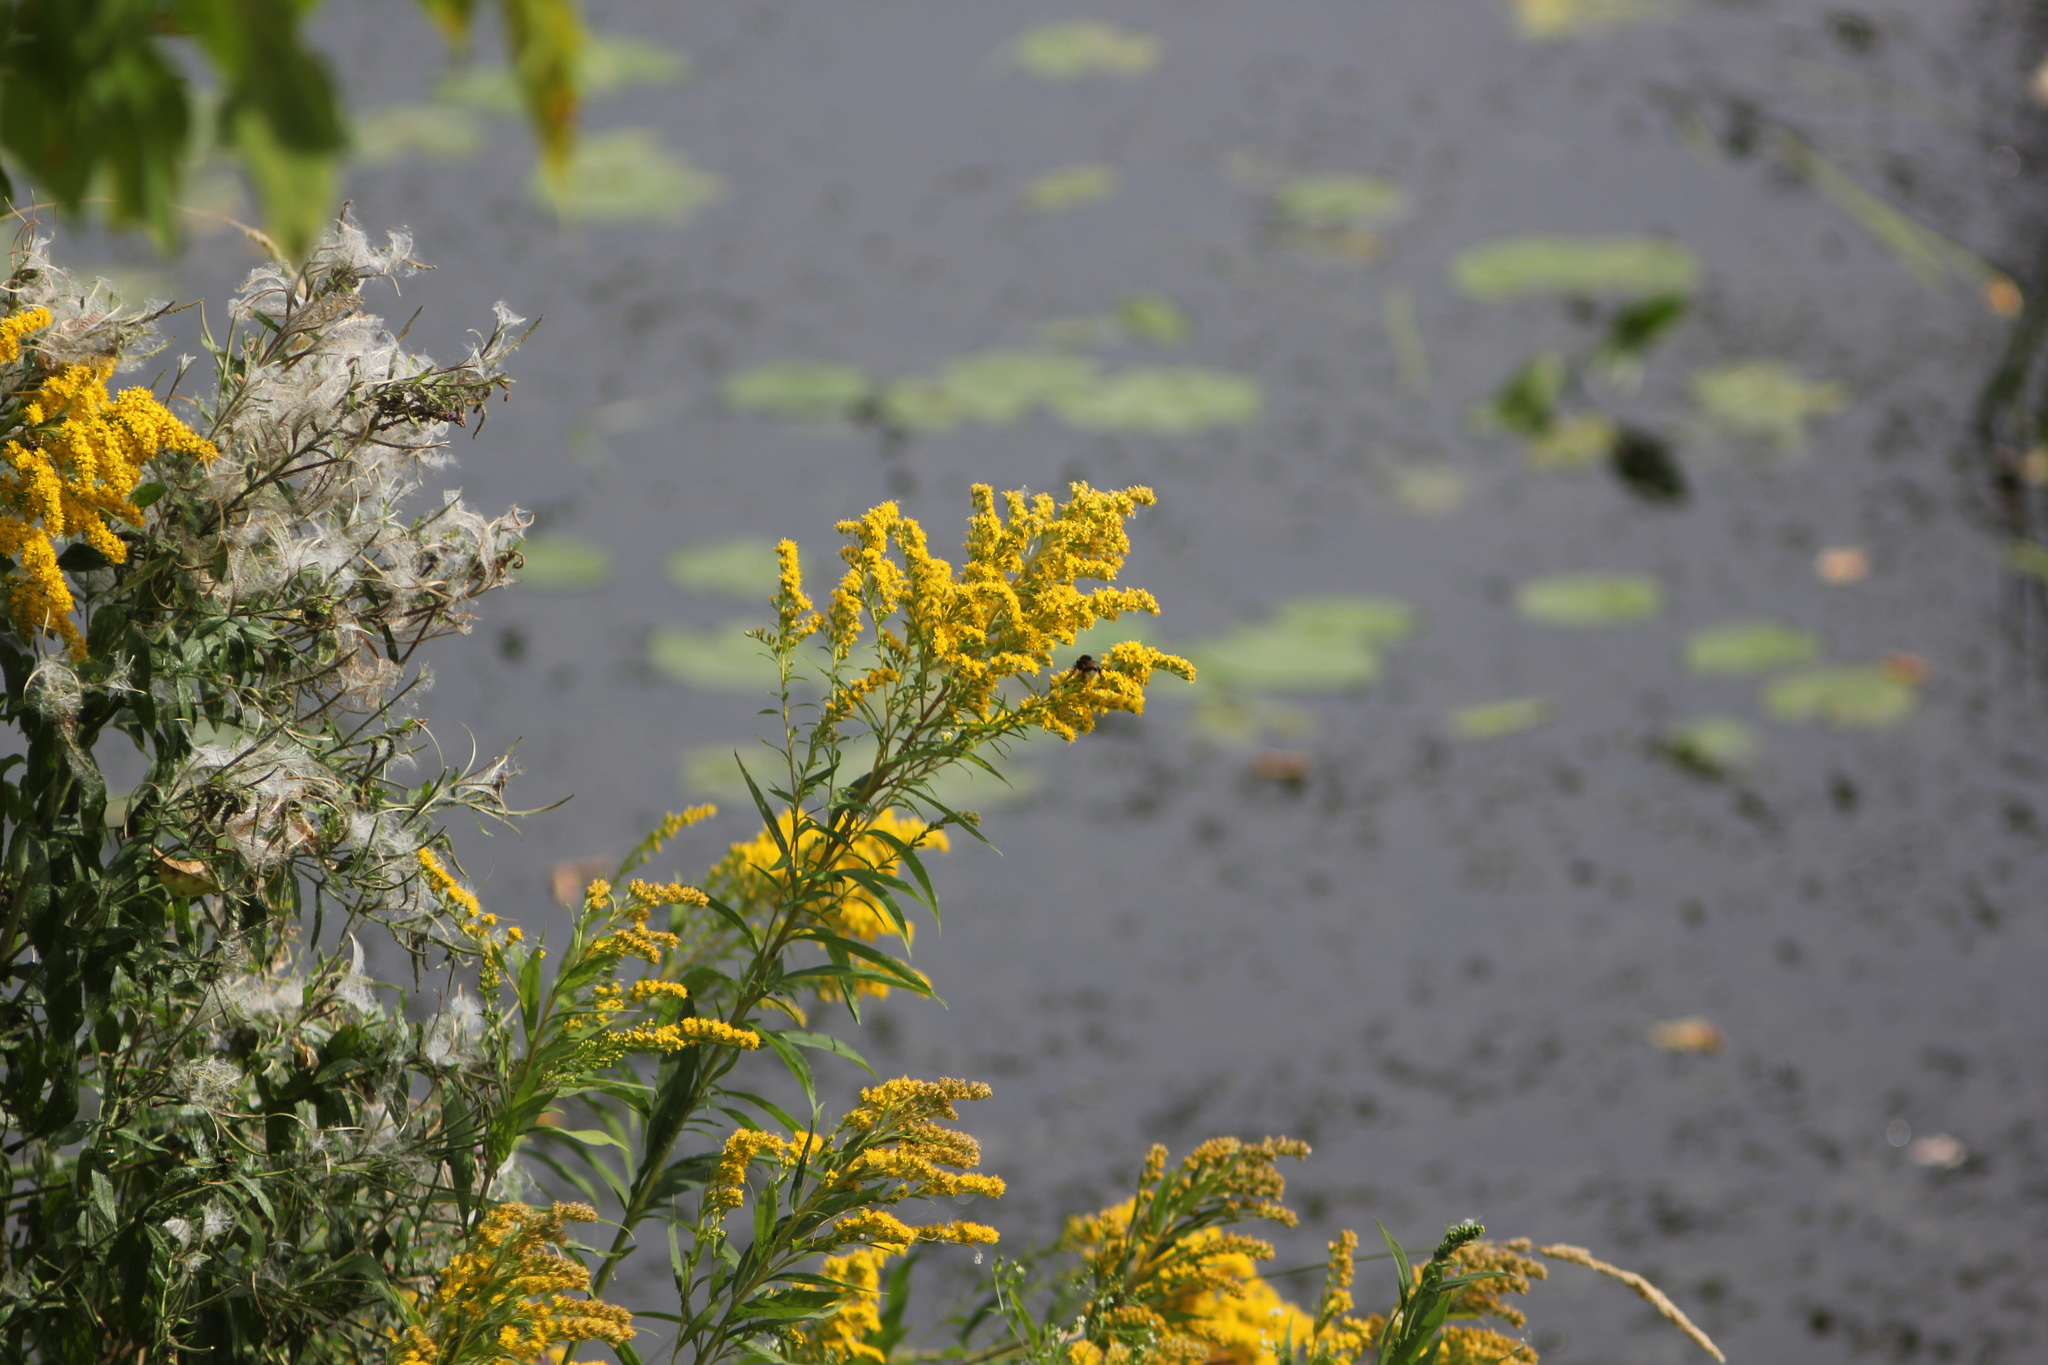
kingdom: Plantae
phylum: Tracheophyta
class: Magnoliopsida
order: Asterales
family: Asteraceae
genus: Solidago
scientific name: Solidago canadensis
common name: Canada goldenrod
